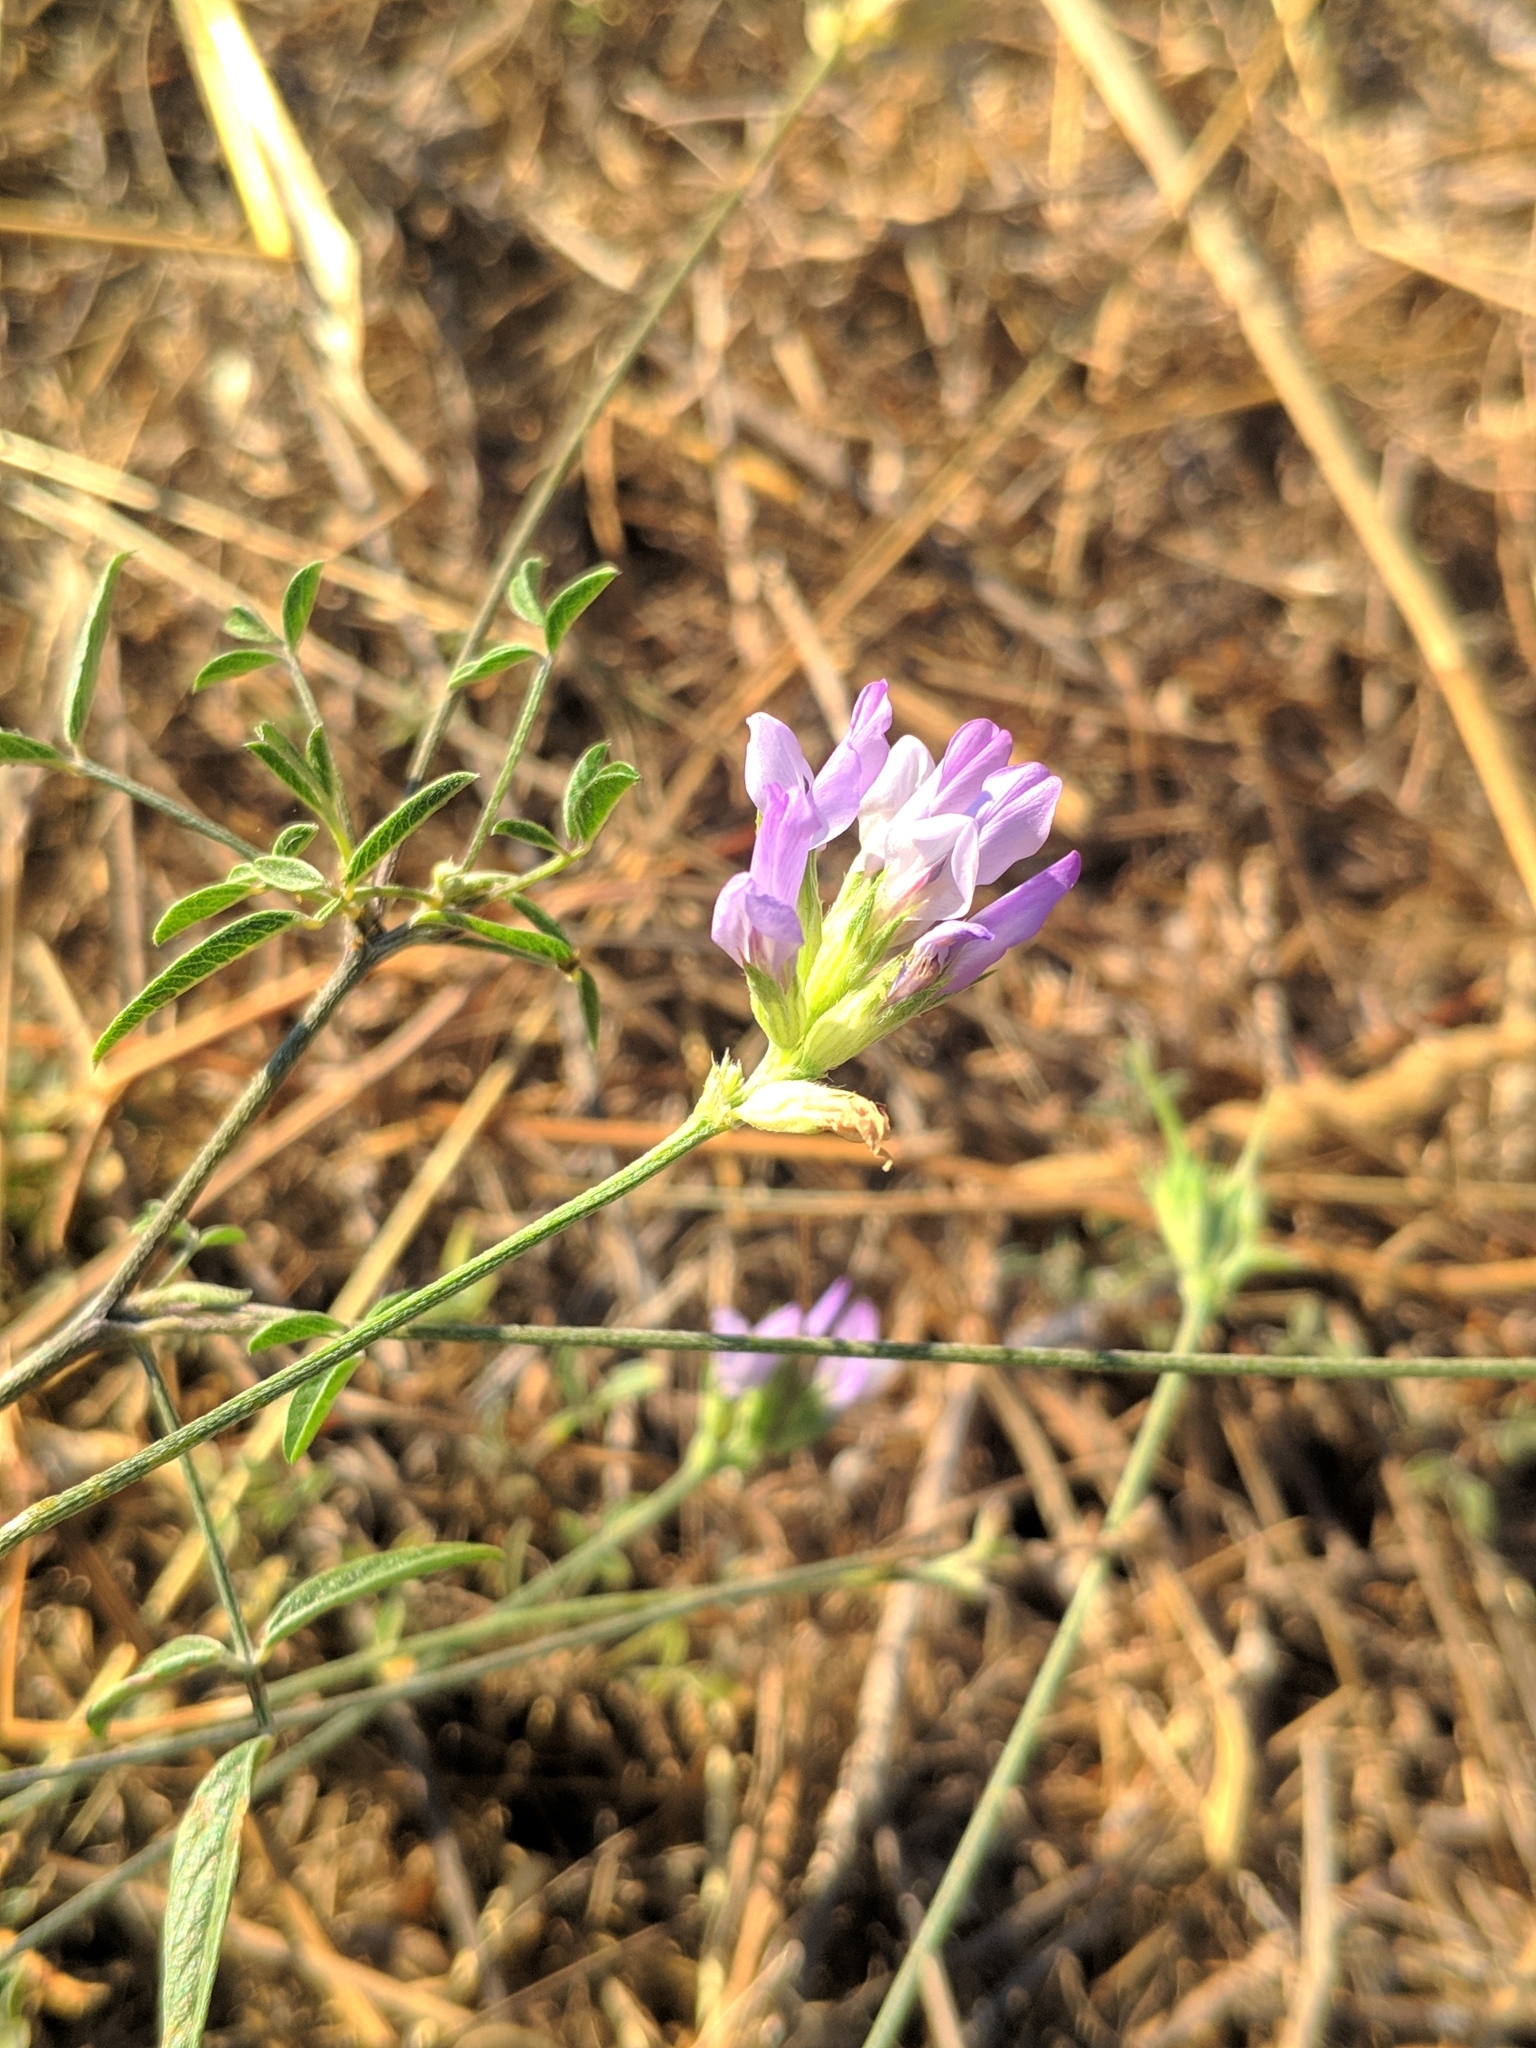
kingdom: Plantae
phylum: Tracheophyta
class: Magnoliopsida
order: Fabales
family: Fabaceae
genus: Bituminaria
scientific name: Bituminaria bituminosa
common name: Arabian pea
